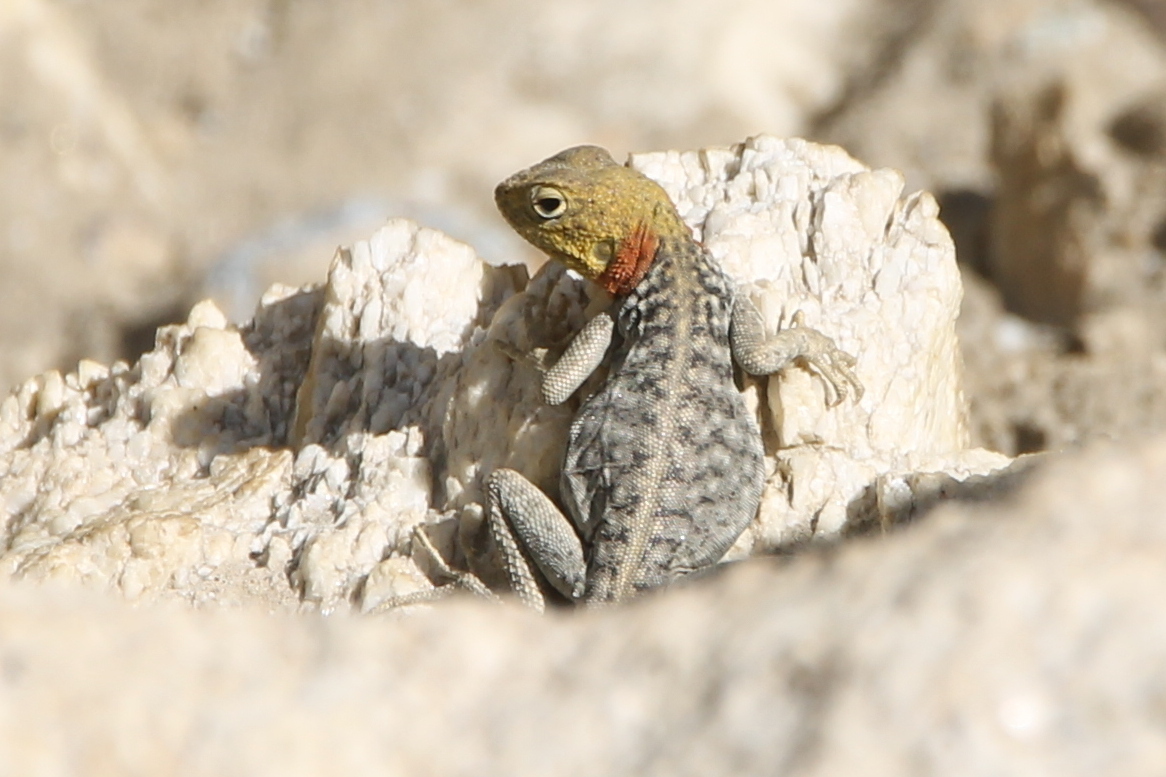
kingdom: Animalia
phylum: Chordata
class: Squamata
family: Agamidae
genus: Paralaudakia
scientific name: Paralaudakia himalayana
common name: Himalayan agama
